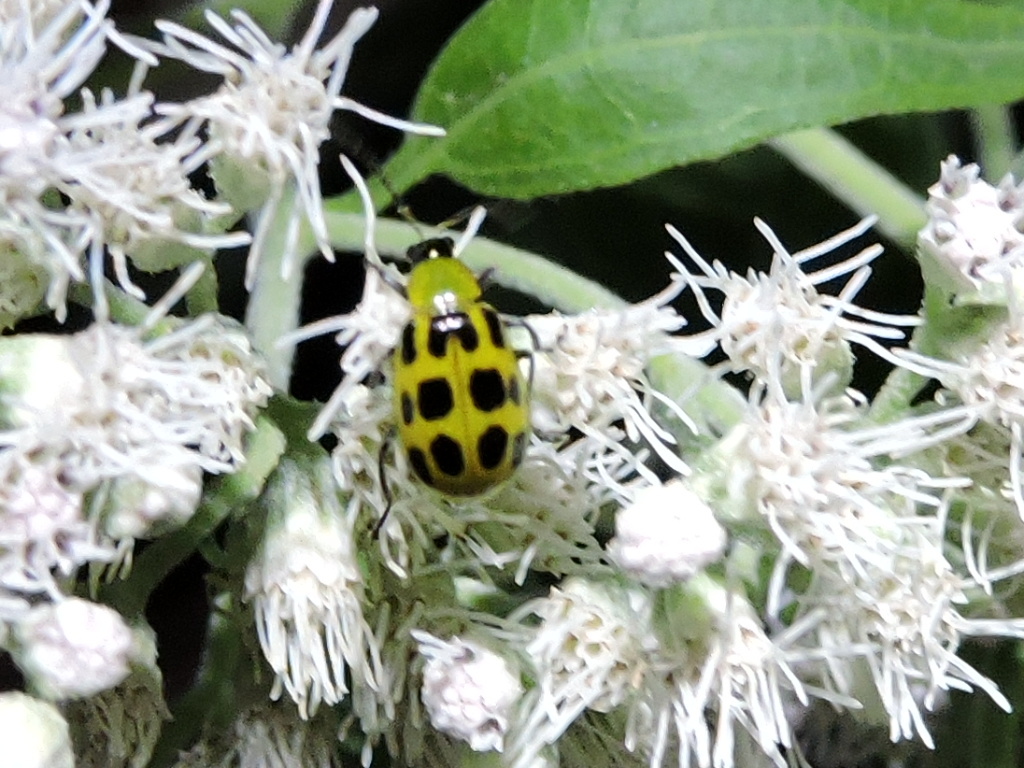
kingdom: Animalia
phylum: Arthropoda
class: Insecta
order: Coleoptera
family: Chrysomelidae
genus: Diabrotica
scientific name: Diabrotica undecimpunctata
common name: Spotted cucumber beetle
